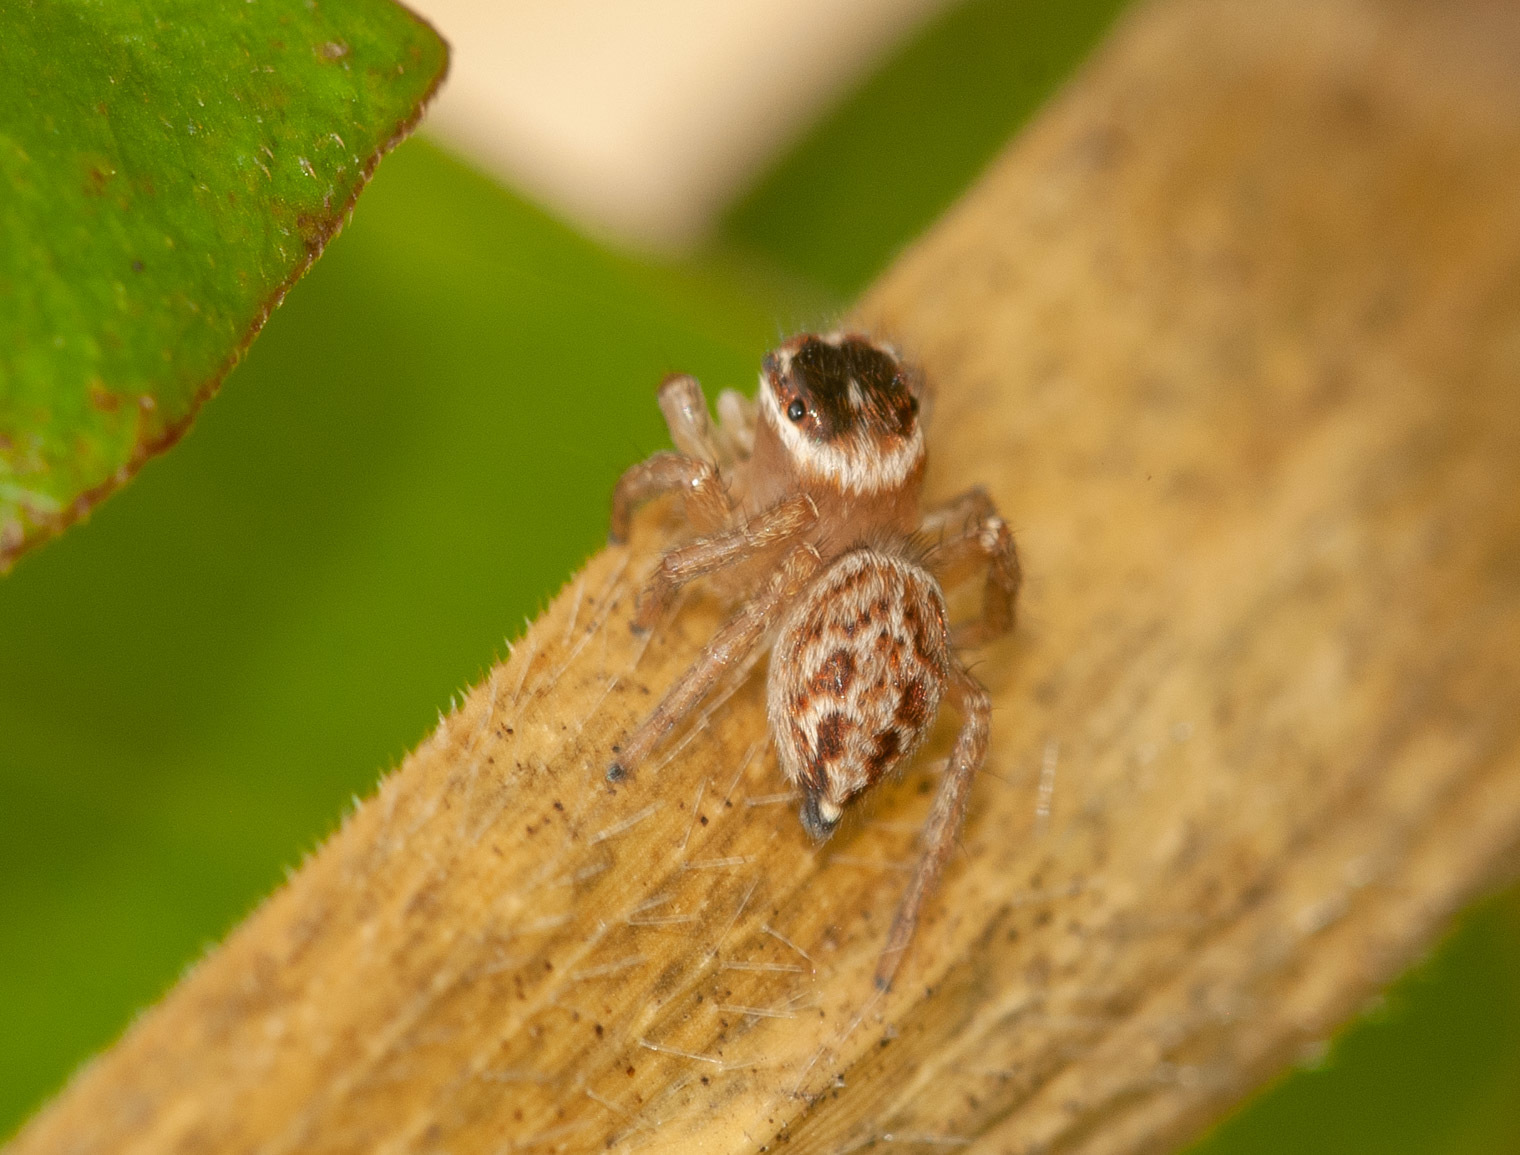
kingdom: Animalia
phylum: Arthropoda
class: Arachnida
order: Araneae
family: Salticidae
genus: Maratus
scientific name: Maratus griseus
